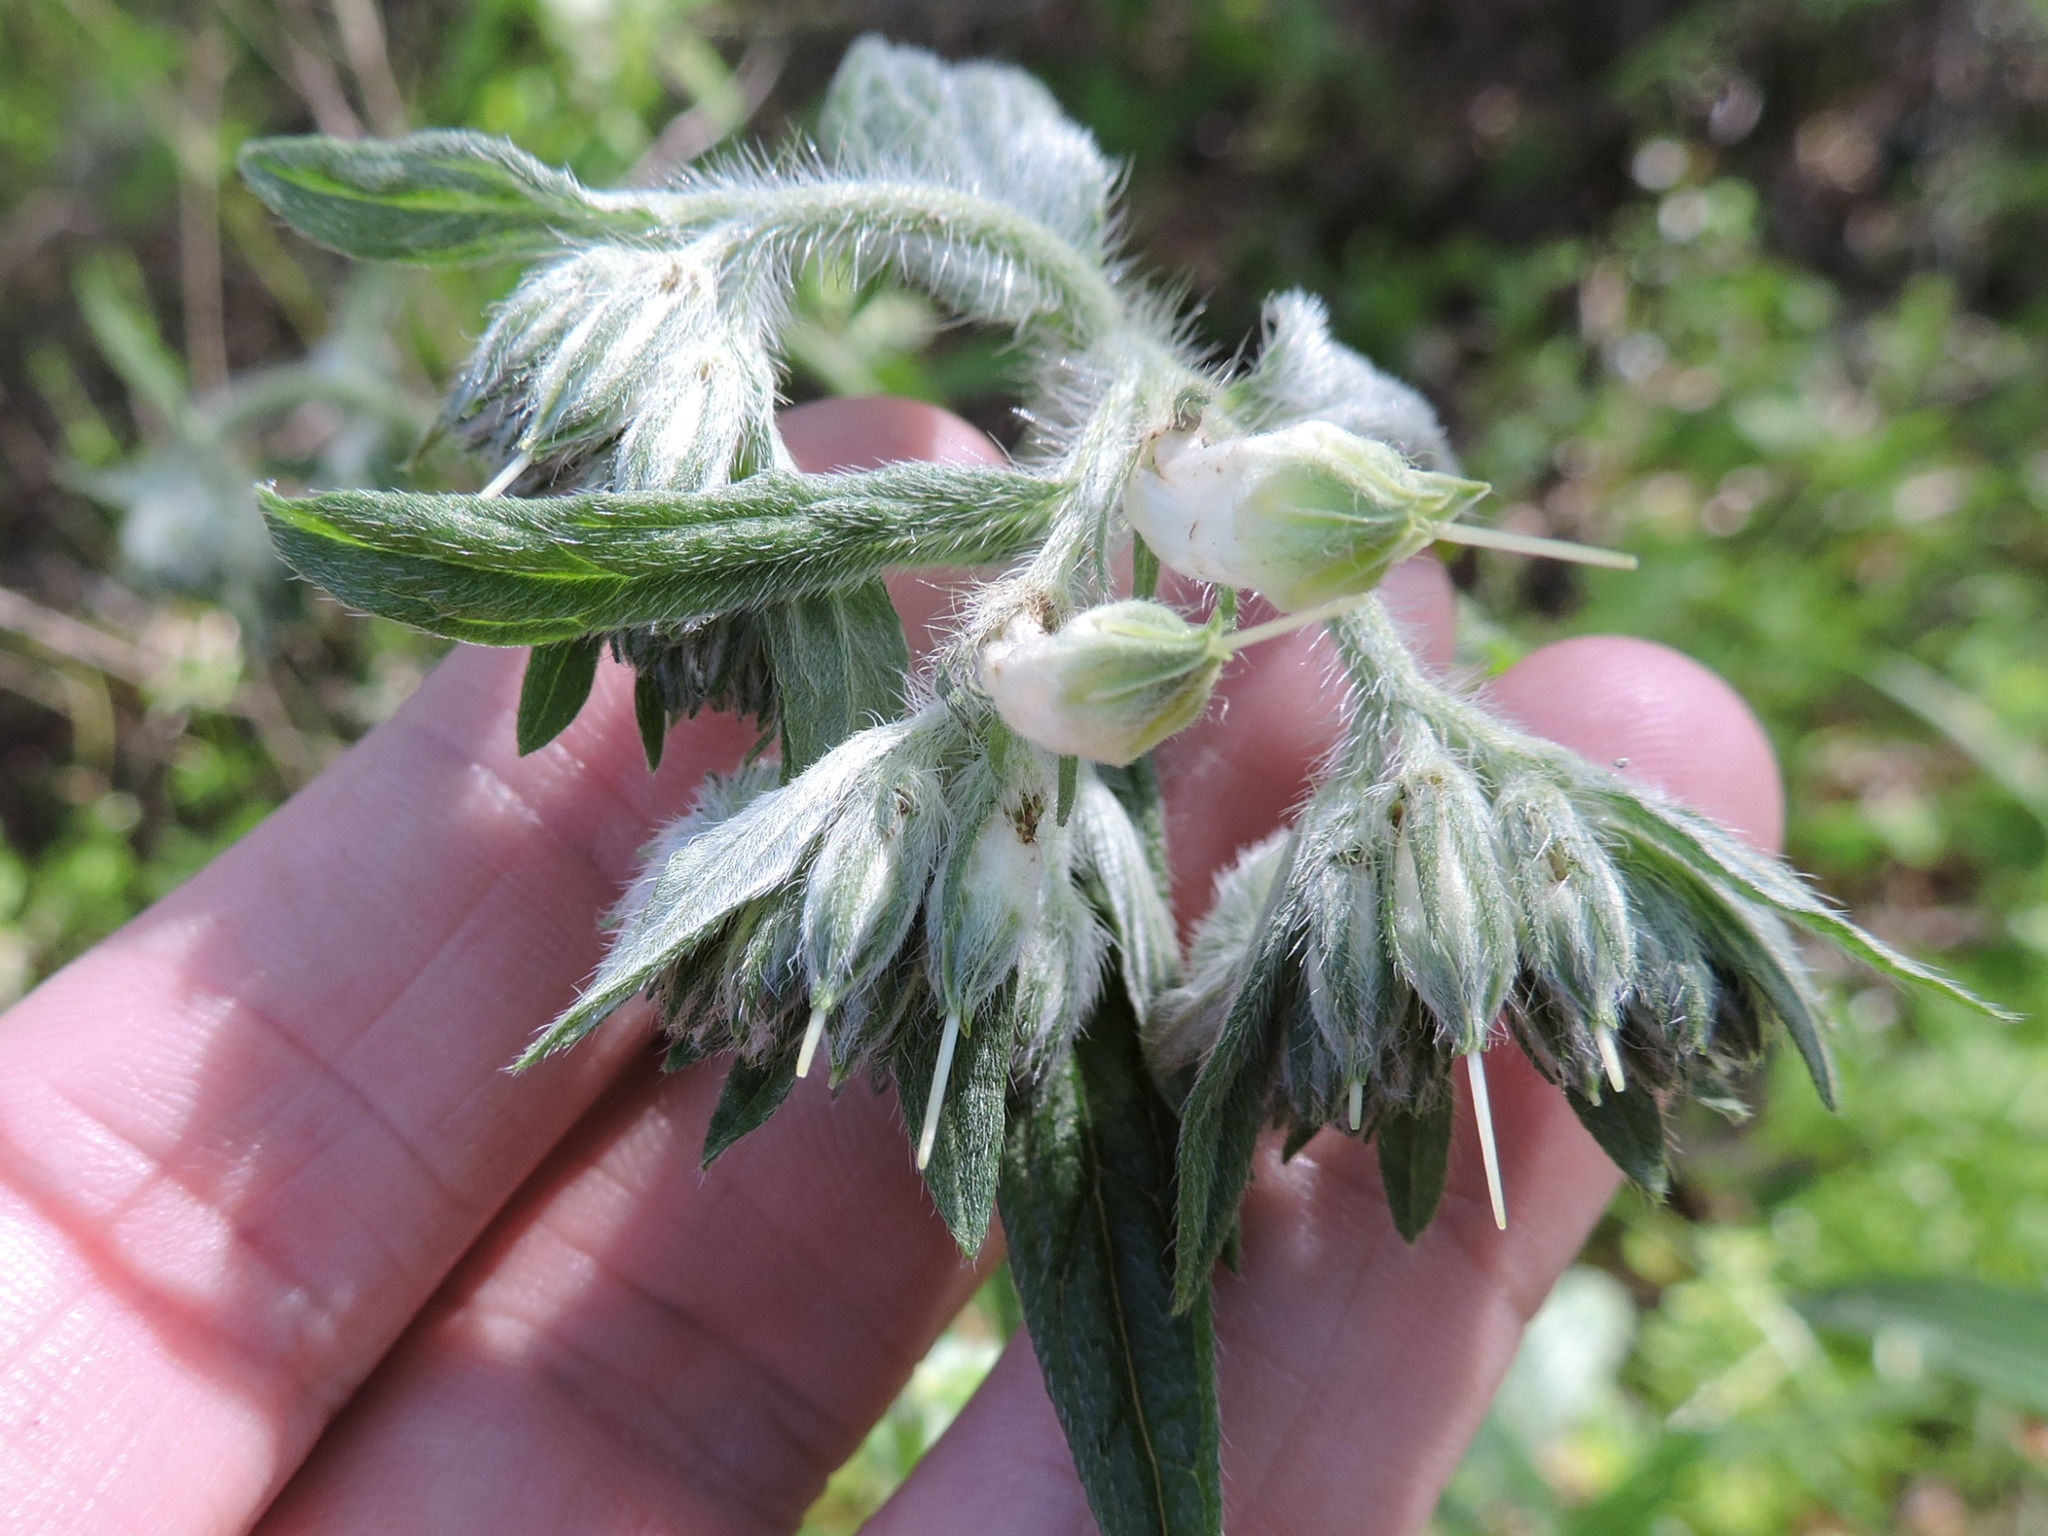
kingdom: Plantae
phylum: Tracheophyta
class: Magnoliopsida
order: Boraginales
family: Boraginaceae
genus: Lithospermum
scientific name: Lithospermum caroliniense
